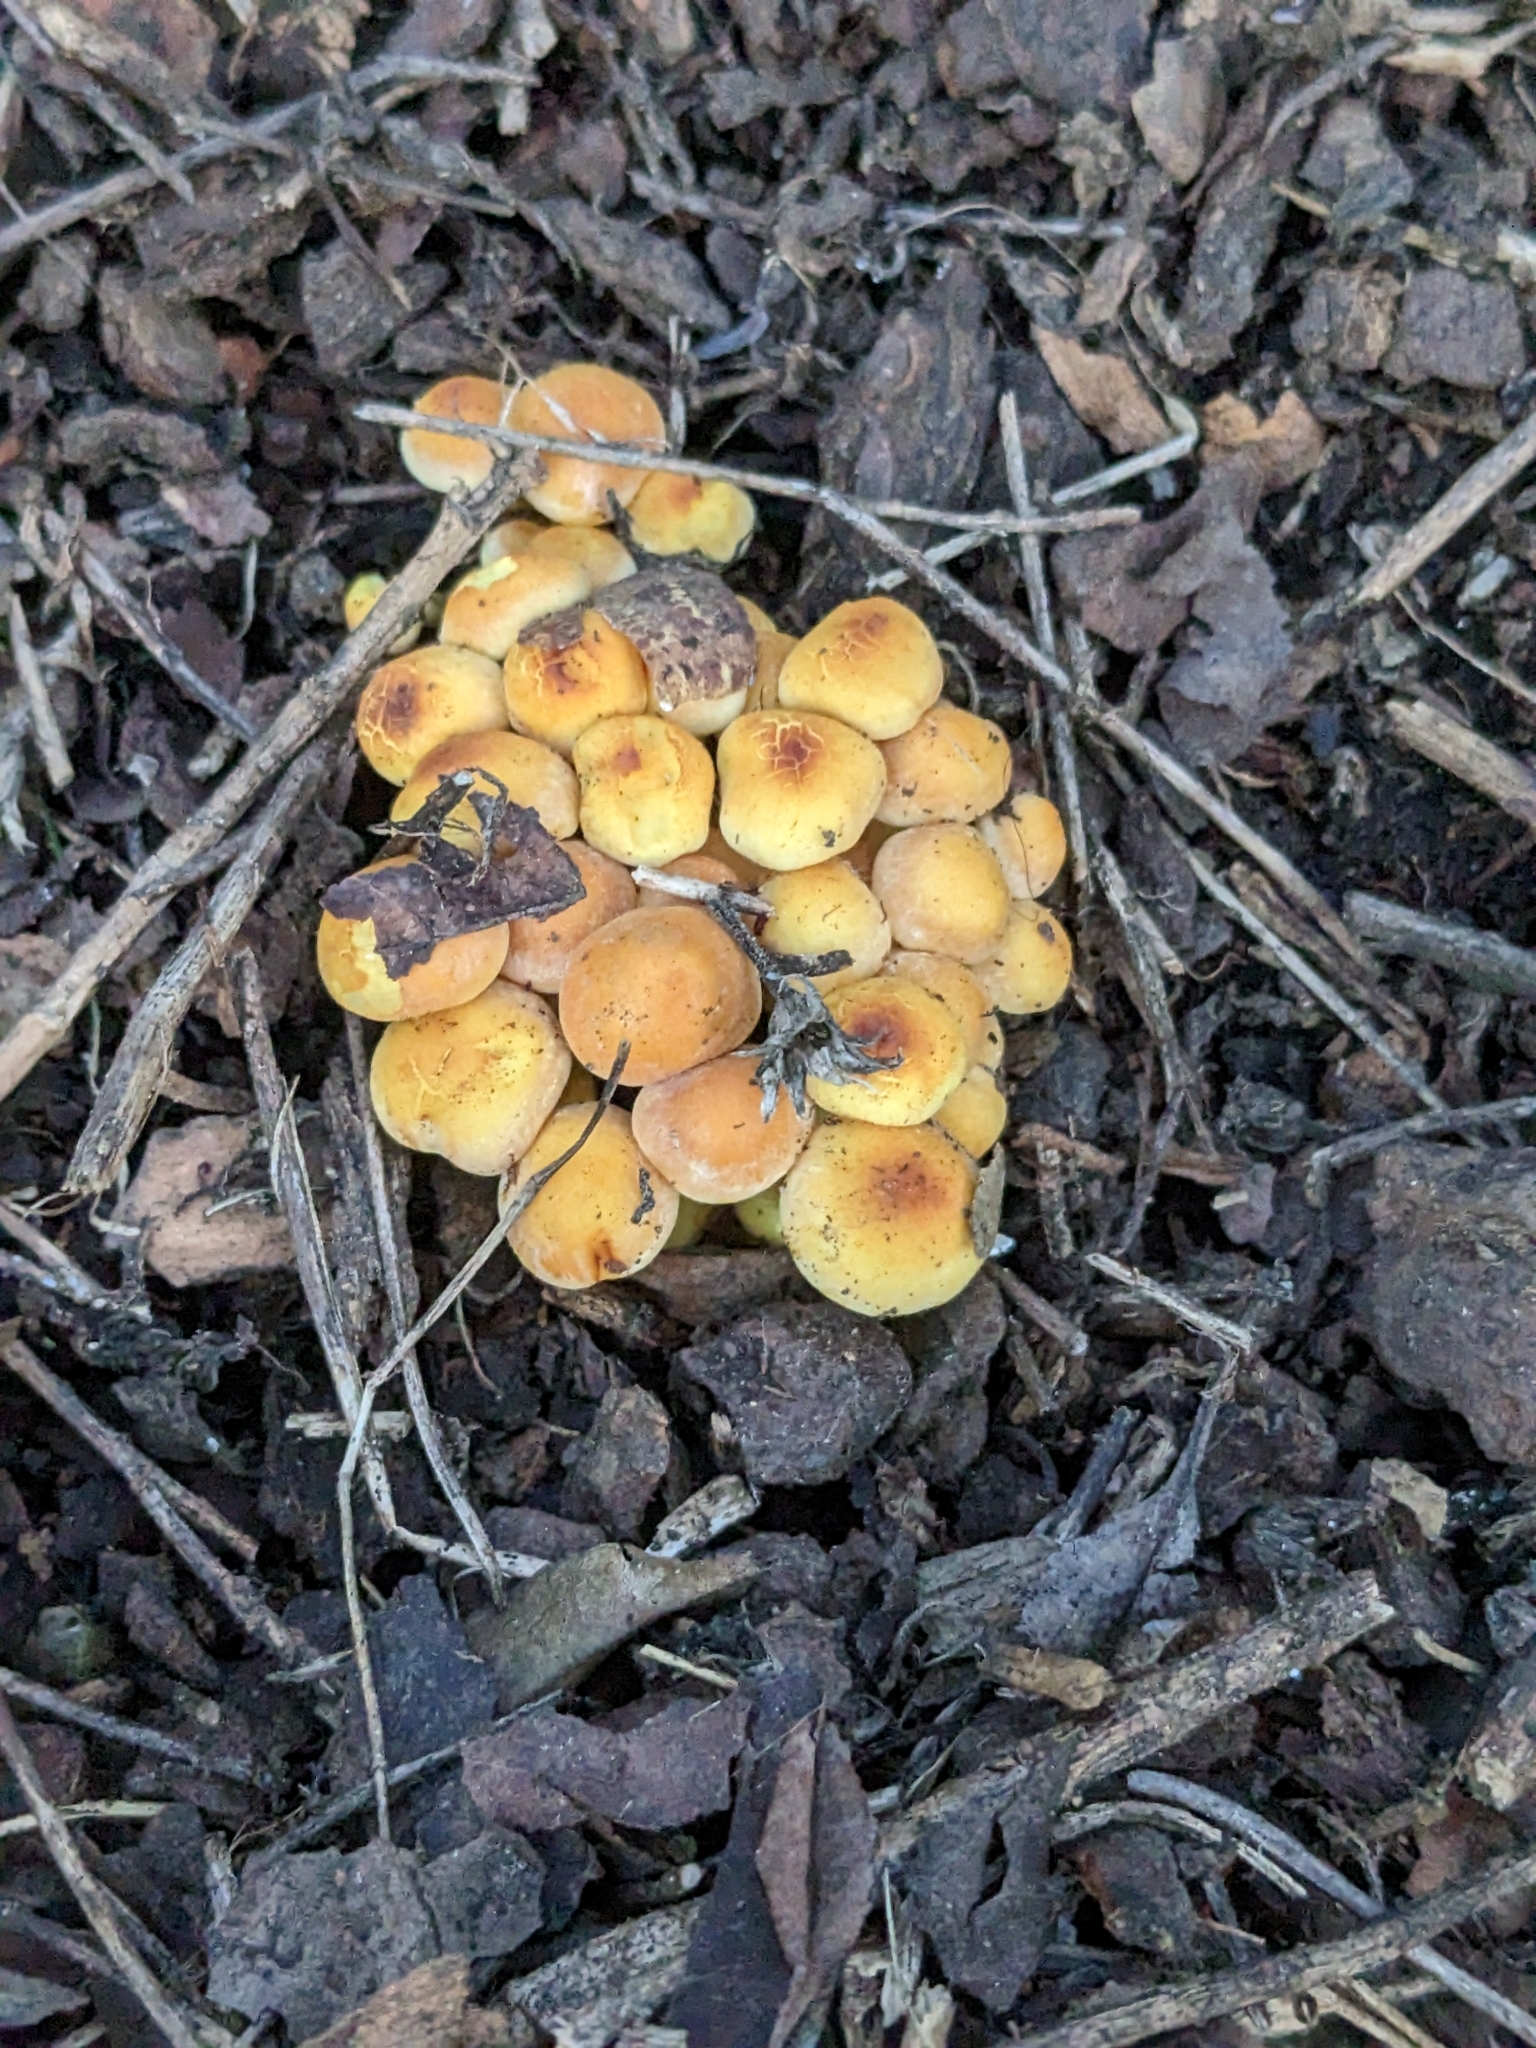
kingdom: Fungi
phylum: Basidiomycota
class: Agaricomycetes
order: Agaricales
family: Strophariaceae
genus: Hypholoma
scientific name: Hypholoma fasciculare
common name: Sulphur tuft
